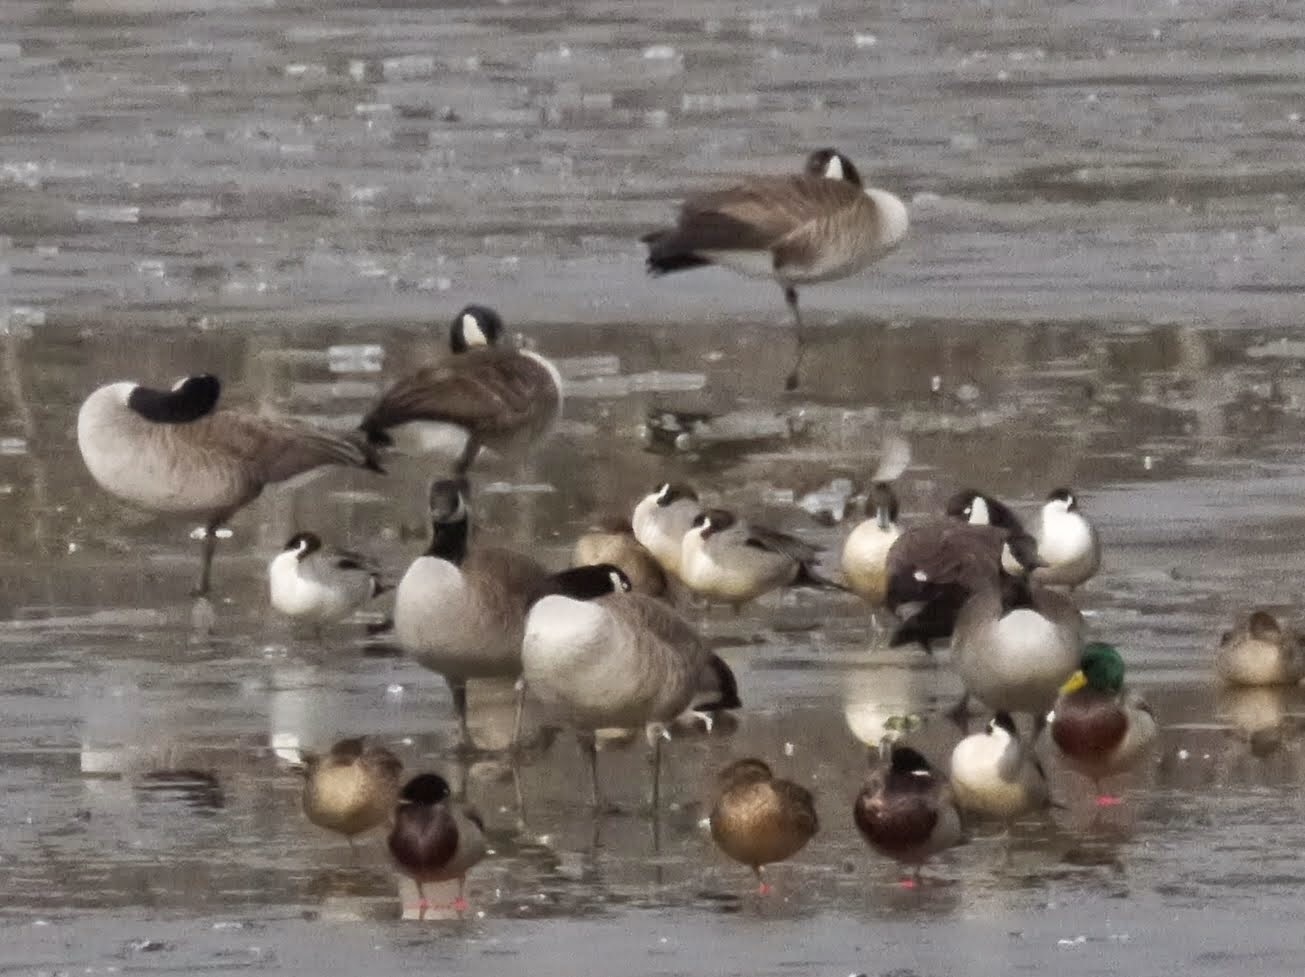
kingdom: Animalia
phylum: Chordata
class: Aves
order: Anseriformes
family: Anatidae
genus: Anas
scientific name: Anas acuta
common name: Northern pintail
